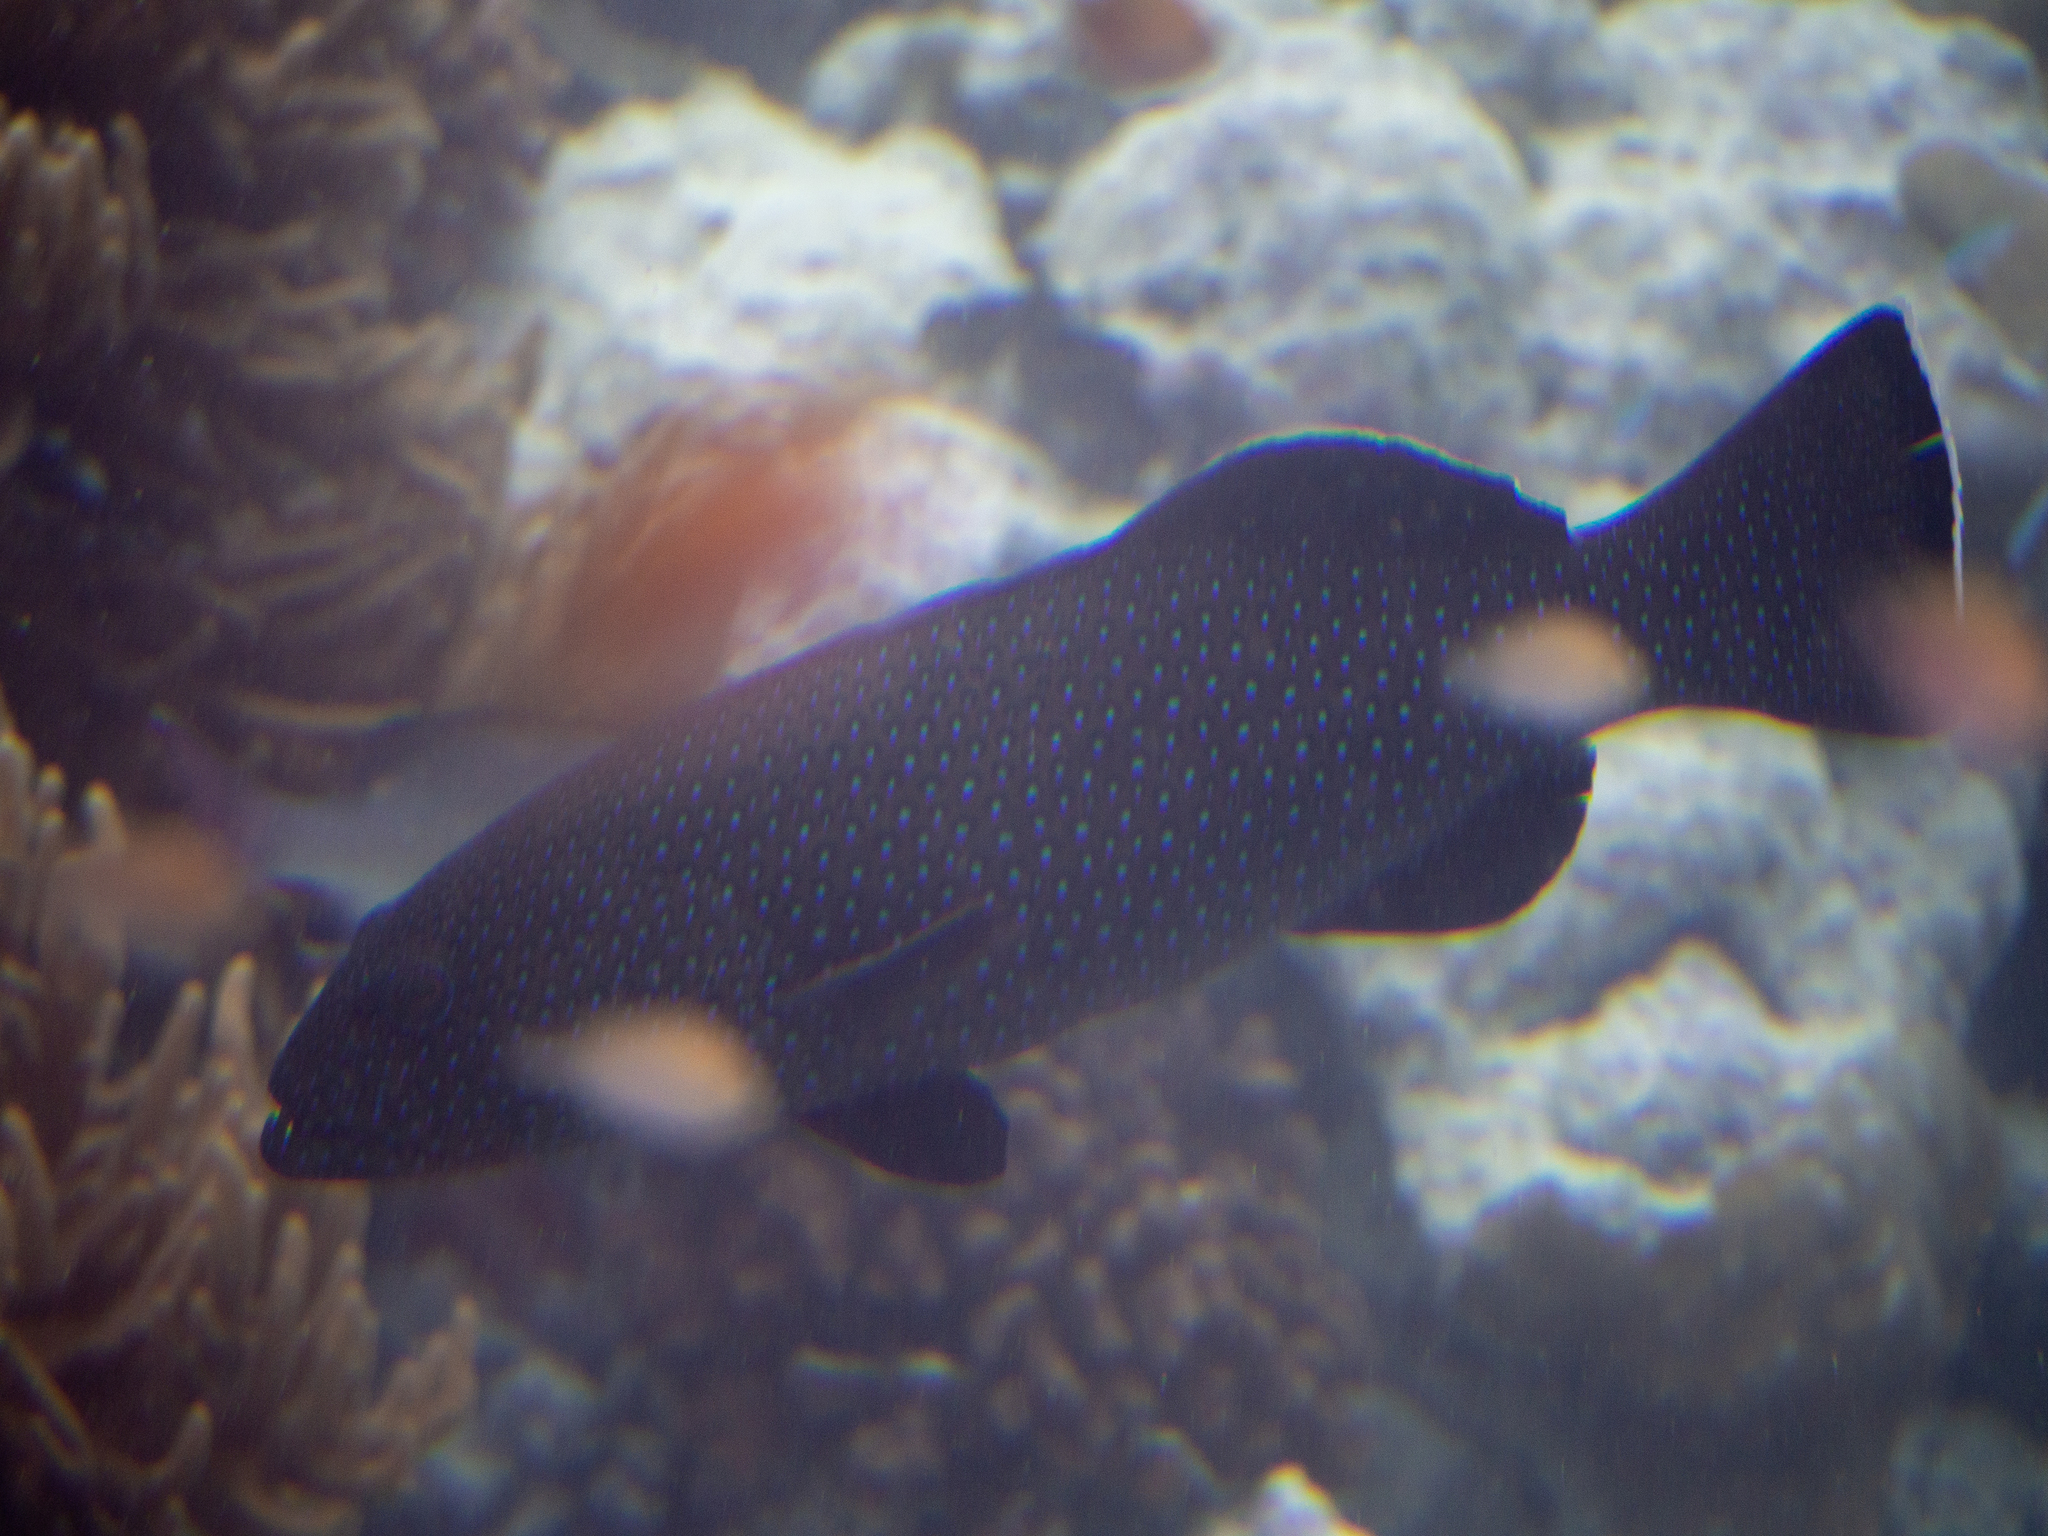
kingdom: Animalia
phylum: Chordata
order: Perciformes
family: Serranidae
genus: Plectropomus
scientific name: Plectropomus areolatus
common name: Squaretail coralgrouper
